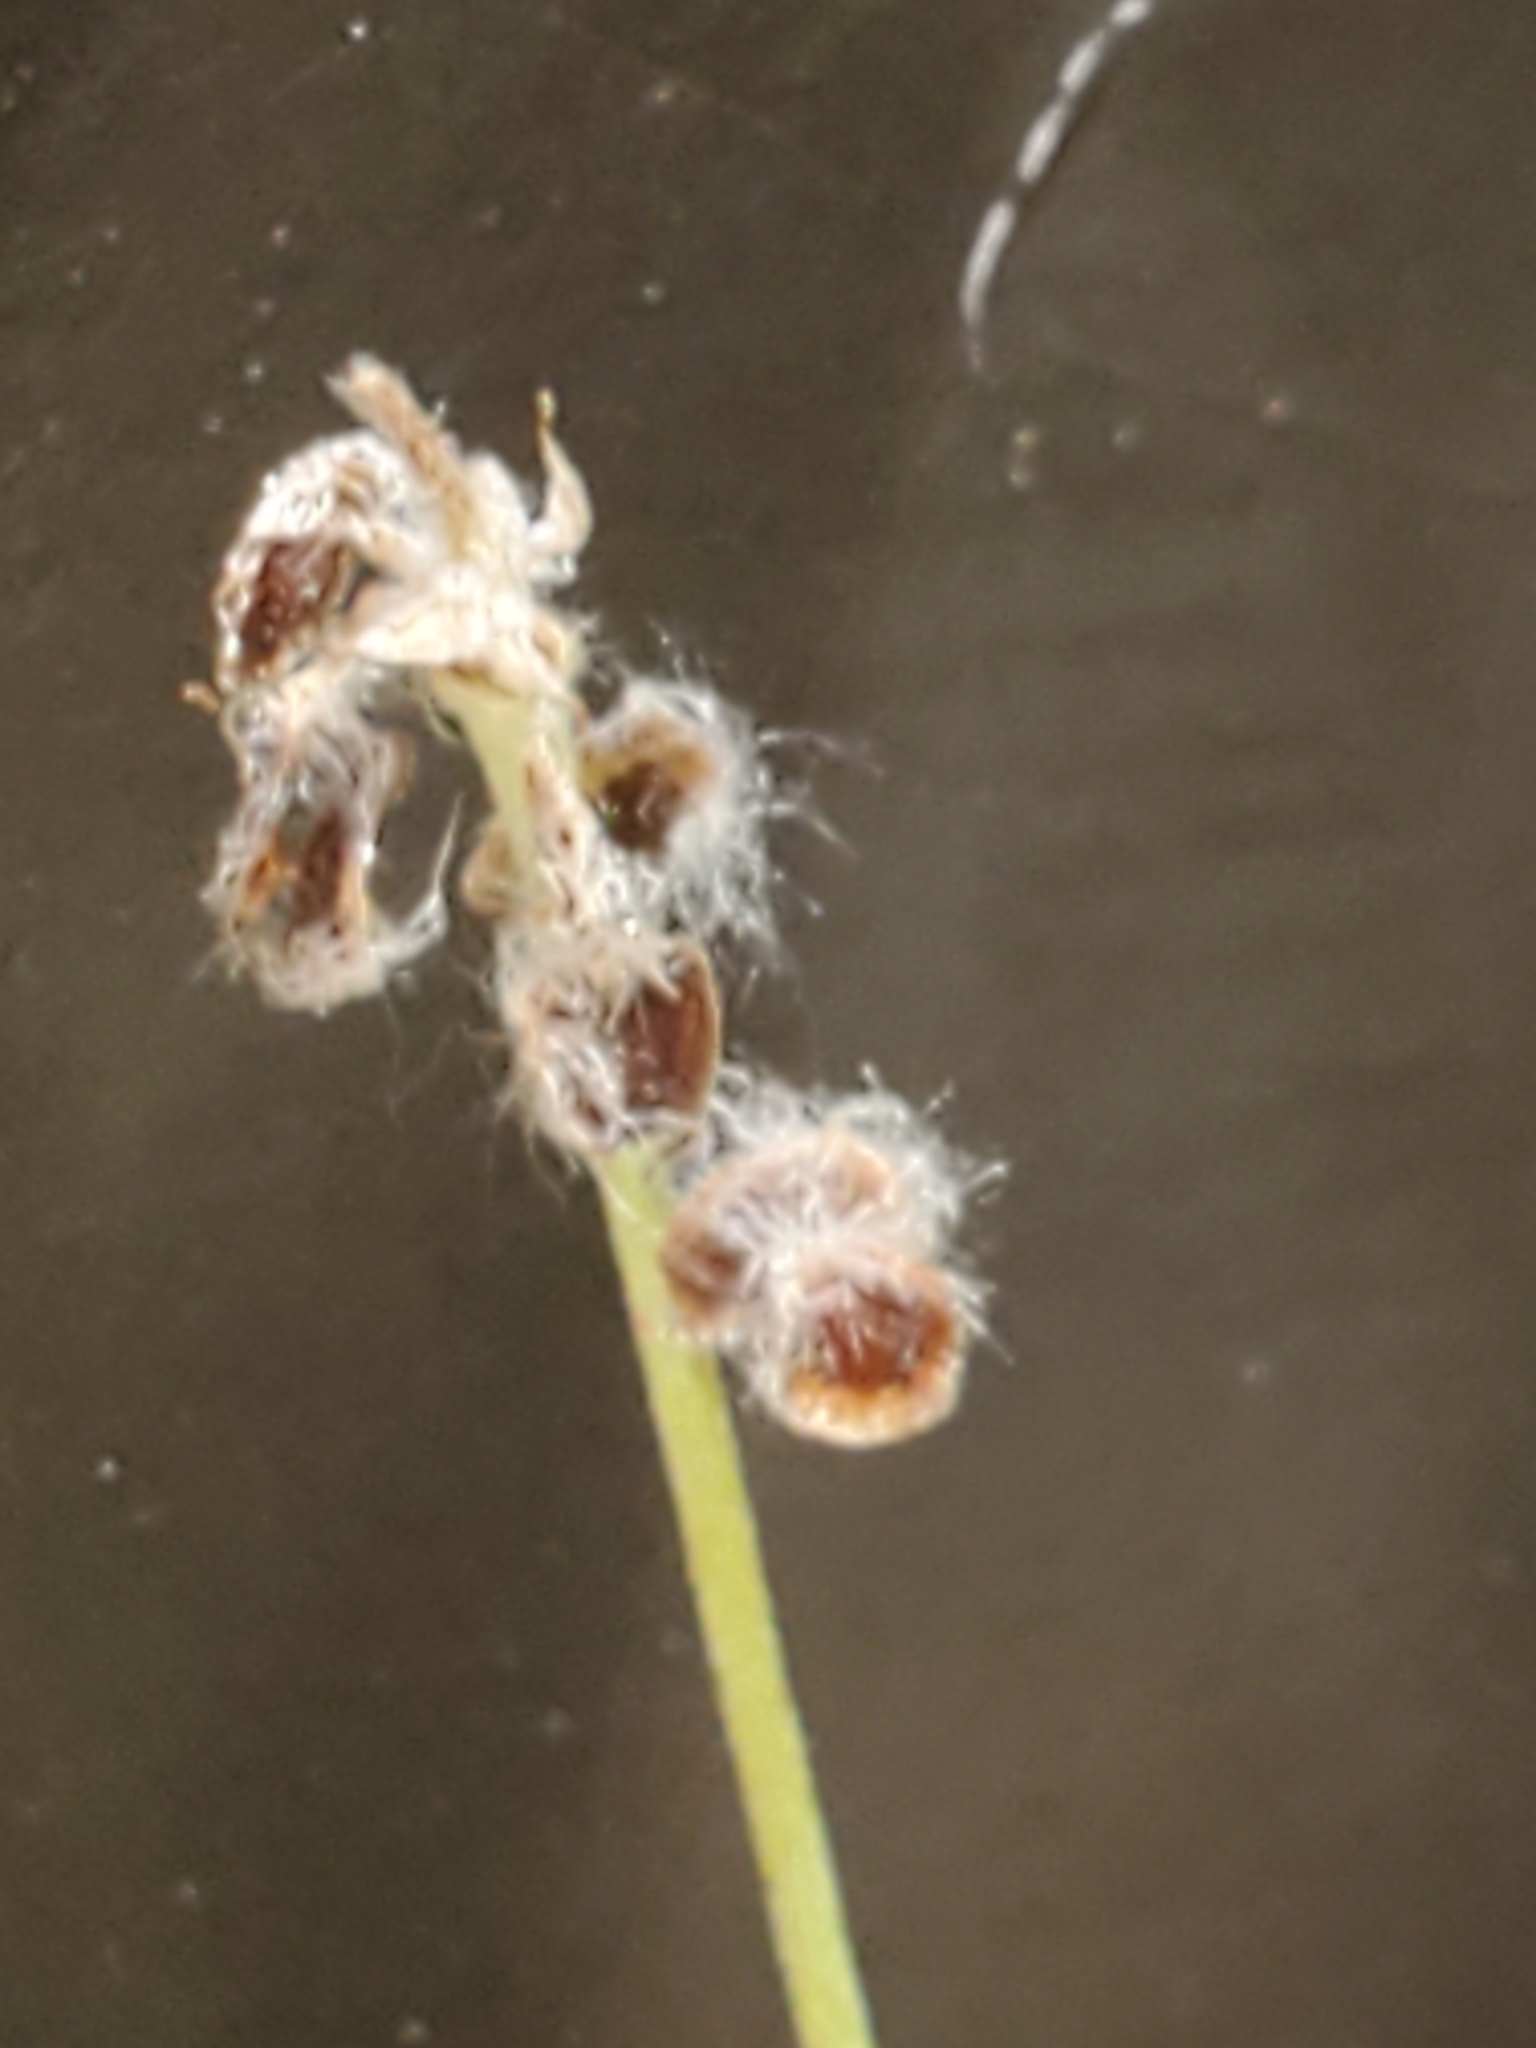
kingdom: Plantae
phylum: Tracheophyta
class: Magnoliopsida
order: Ranunculales
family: Ranunculaceae
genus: Anemone
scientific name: Anemone edwardsiana
